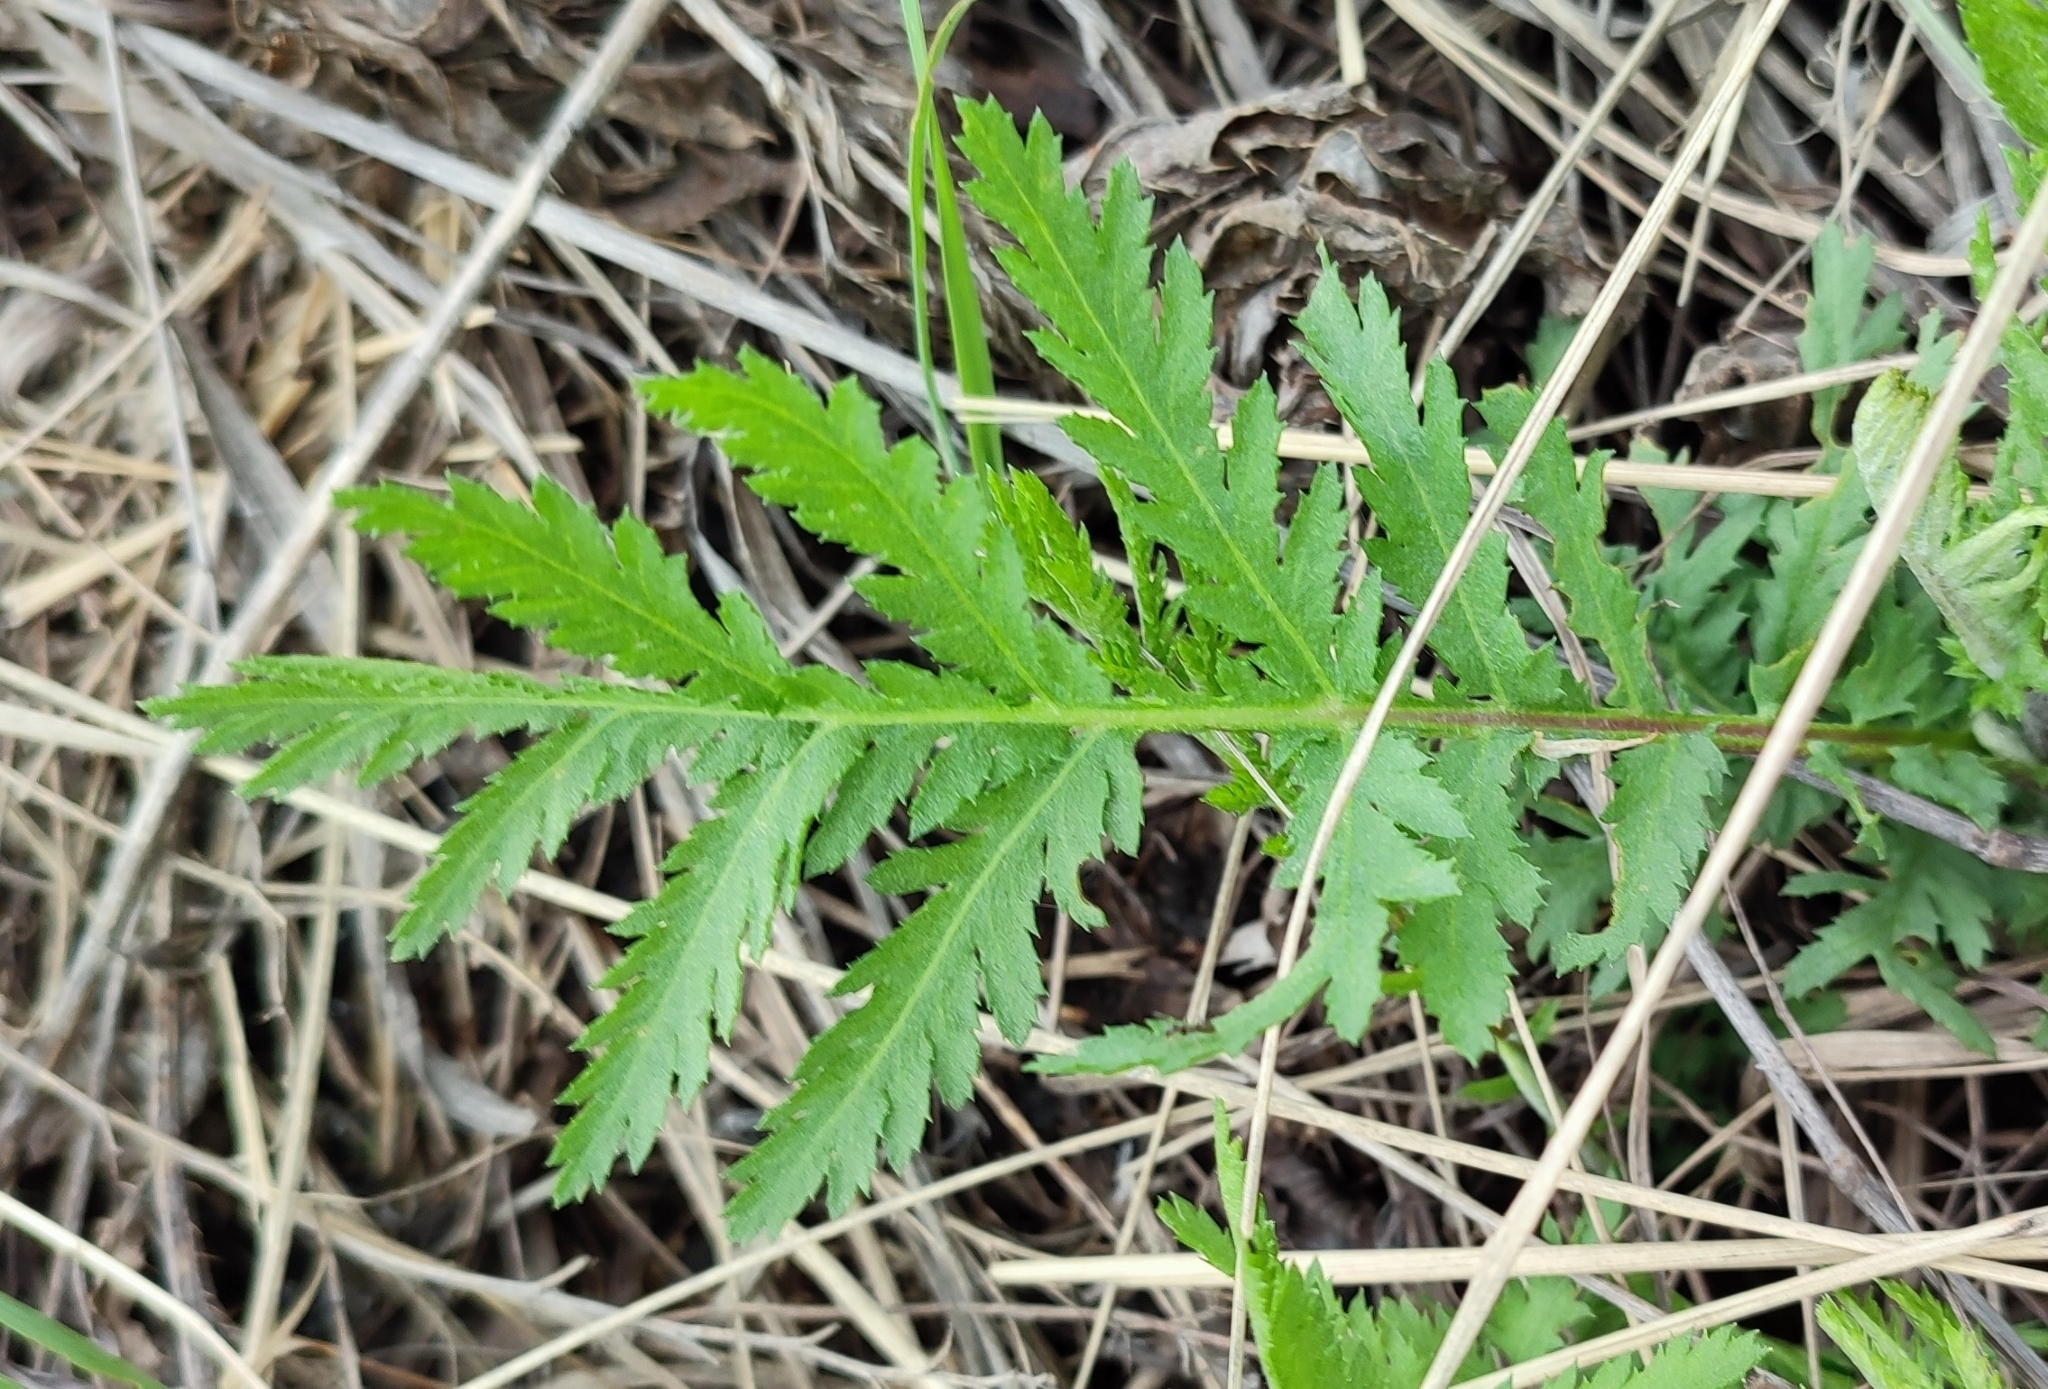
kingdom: Plantae
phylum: Tracheophyta
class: Magnoliopsida
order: Asterales
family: Asteraceae
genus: Tanacetum
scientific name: Tanacetum vulgare
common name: Common tansy
